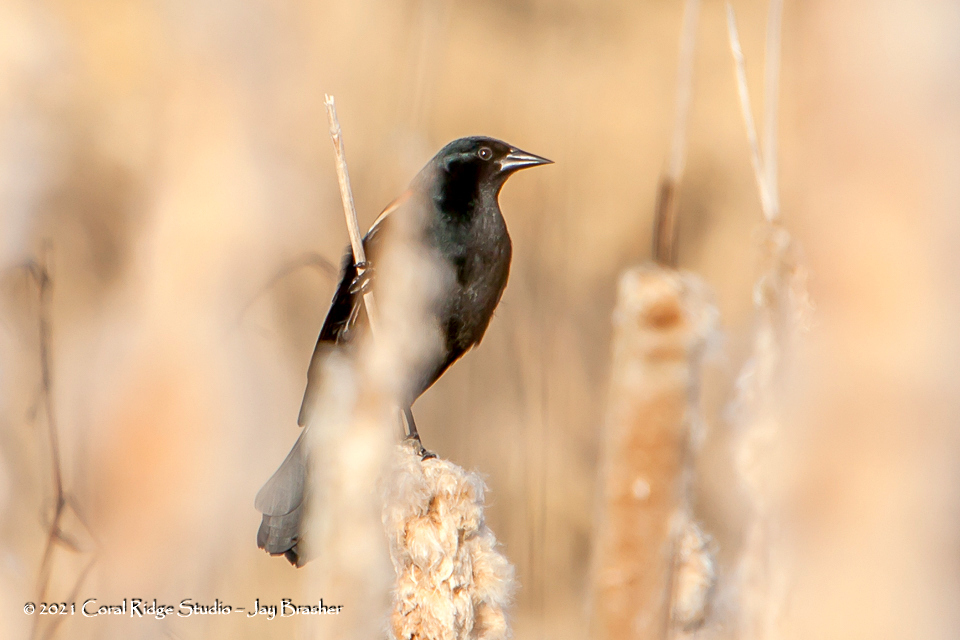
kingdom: Animalia
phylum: Chordata
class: Aves
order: Passeriformes
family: Icteridae
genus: Agelaius
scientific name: Agelaius phoeniceus
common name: Red-winged blackbird
